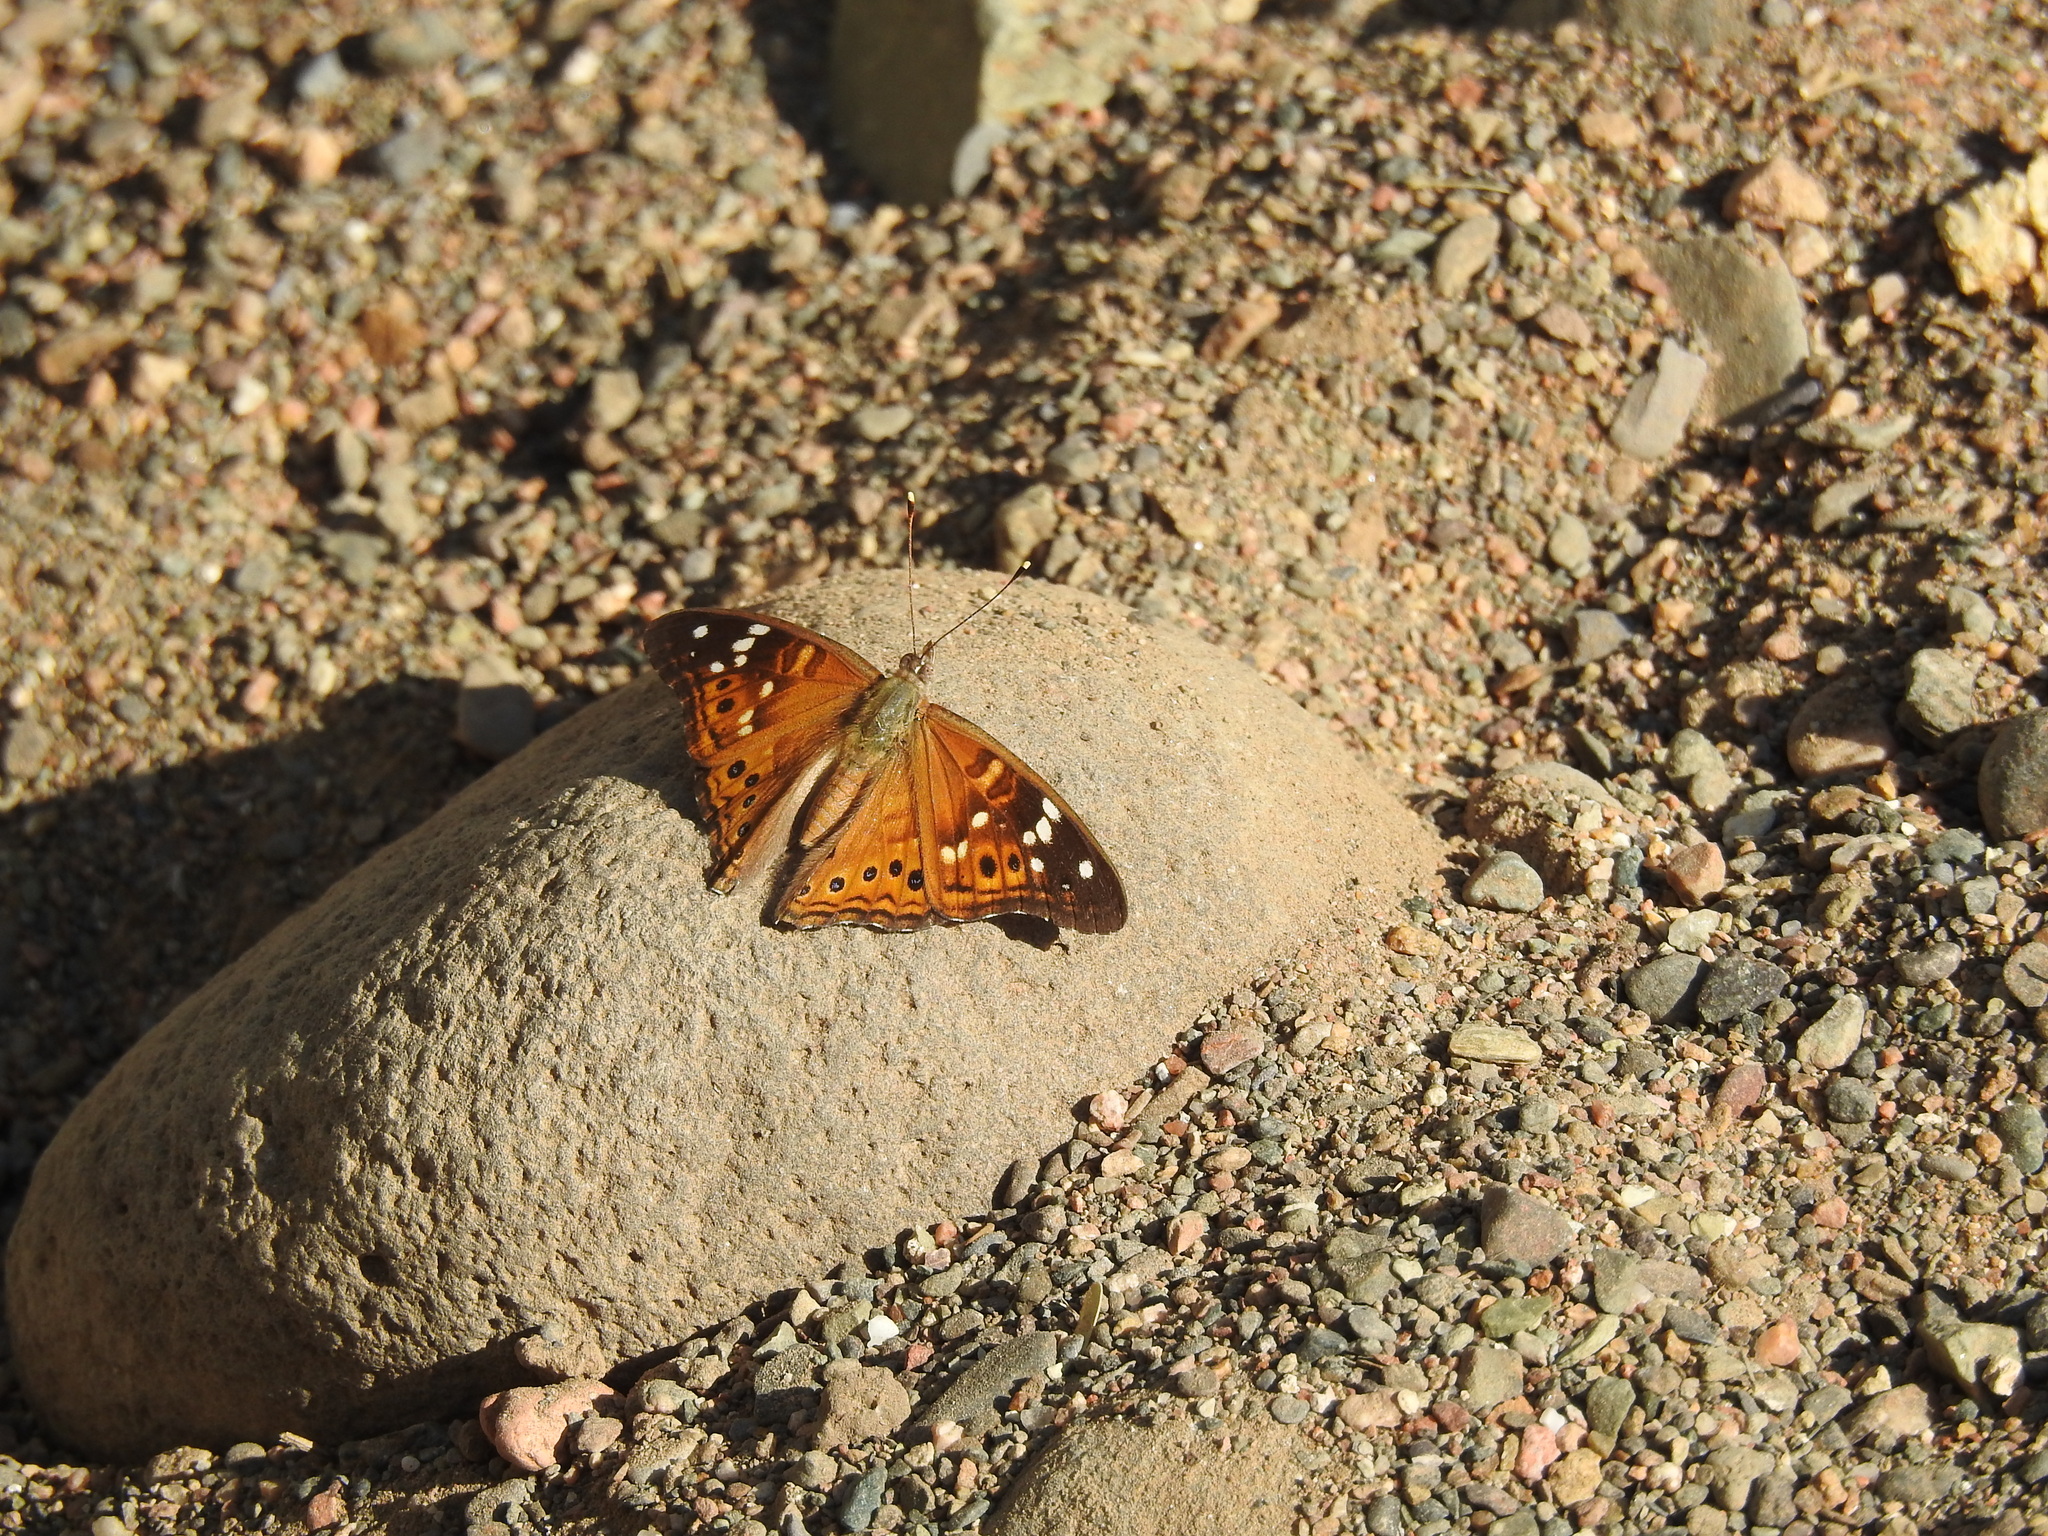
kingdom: Animalia
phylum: Arthropoda
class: Insecta
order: Lepidoptera
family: Nymphalidae
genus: Asterocampa
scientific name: Asterocampa leilia
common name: Empress leilia
